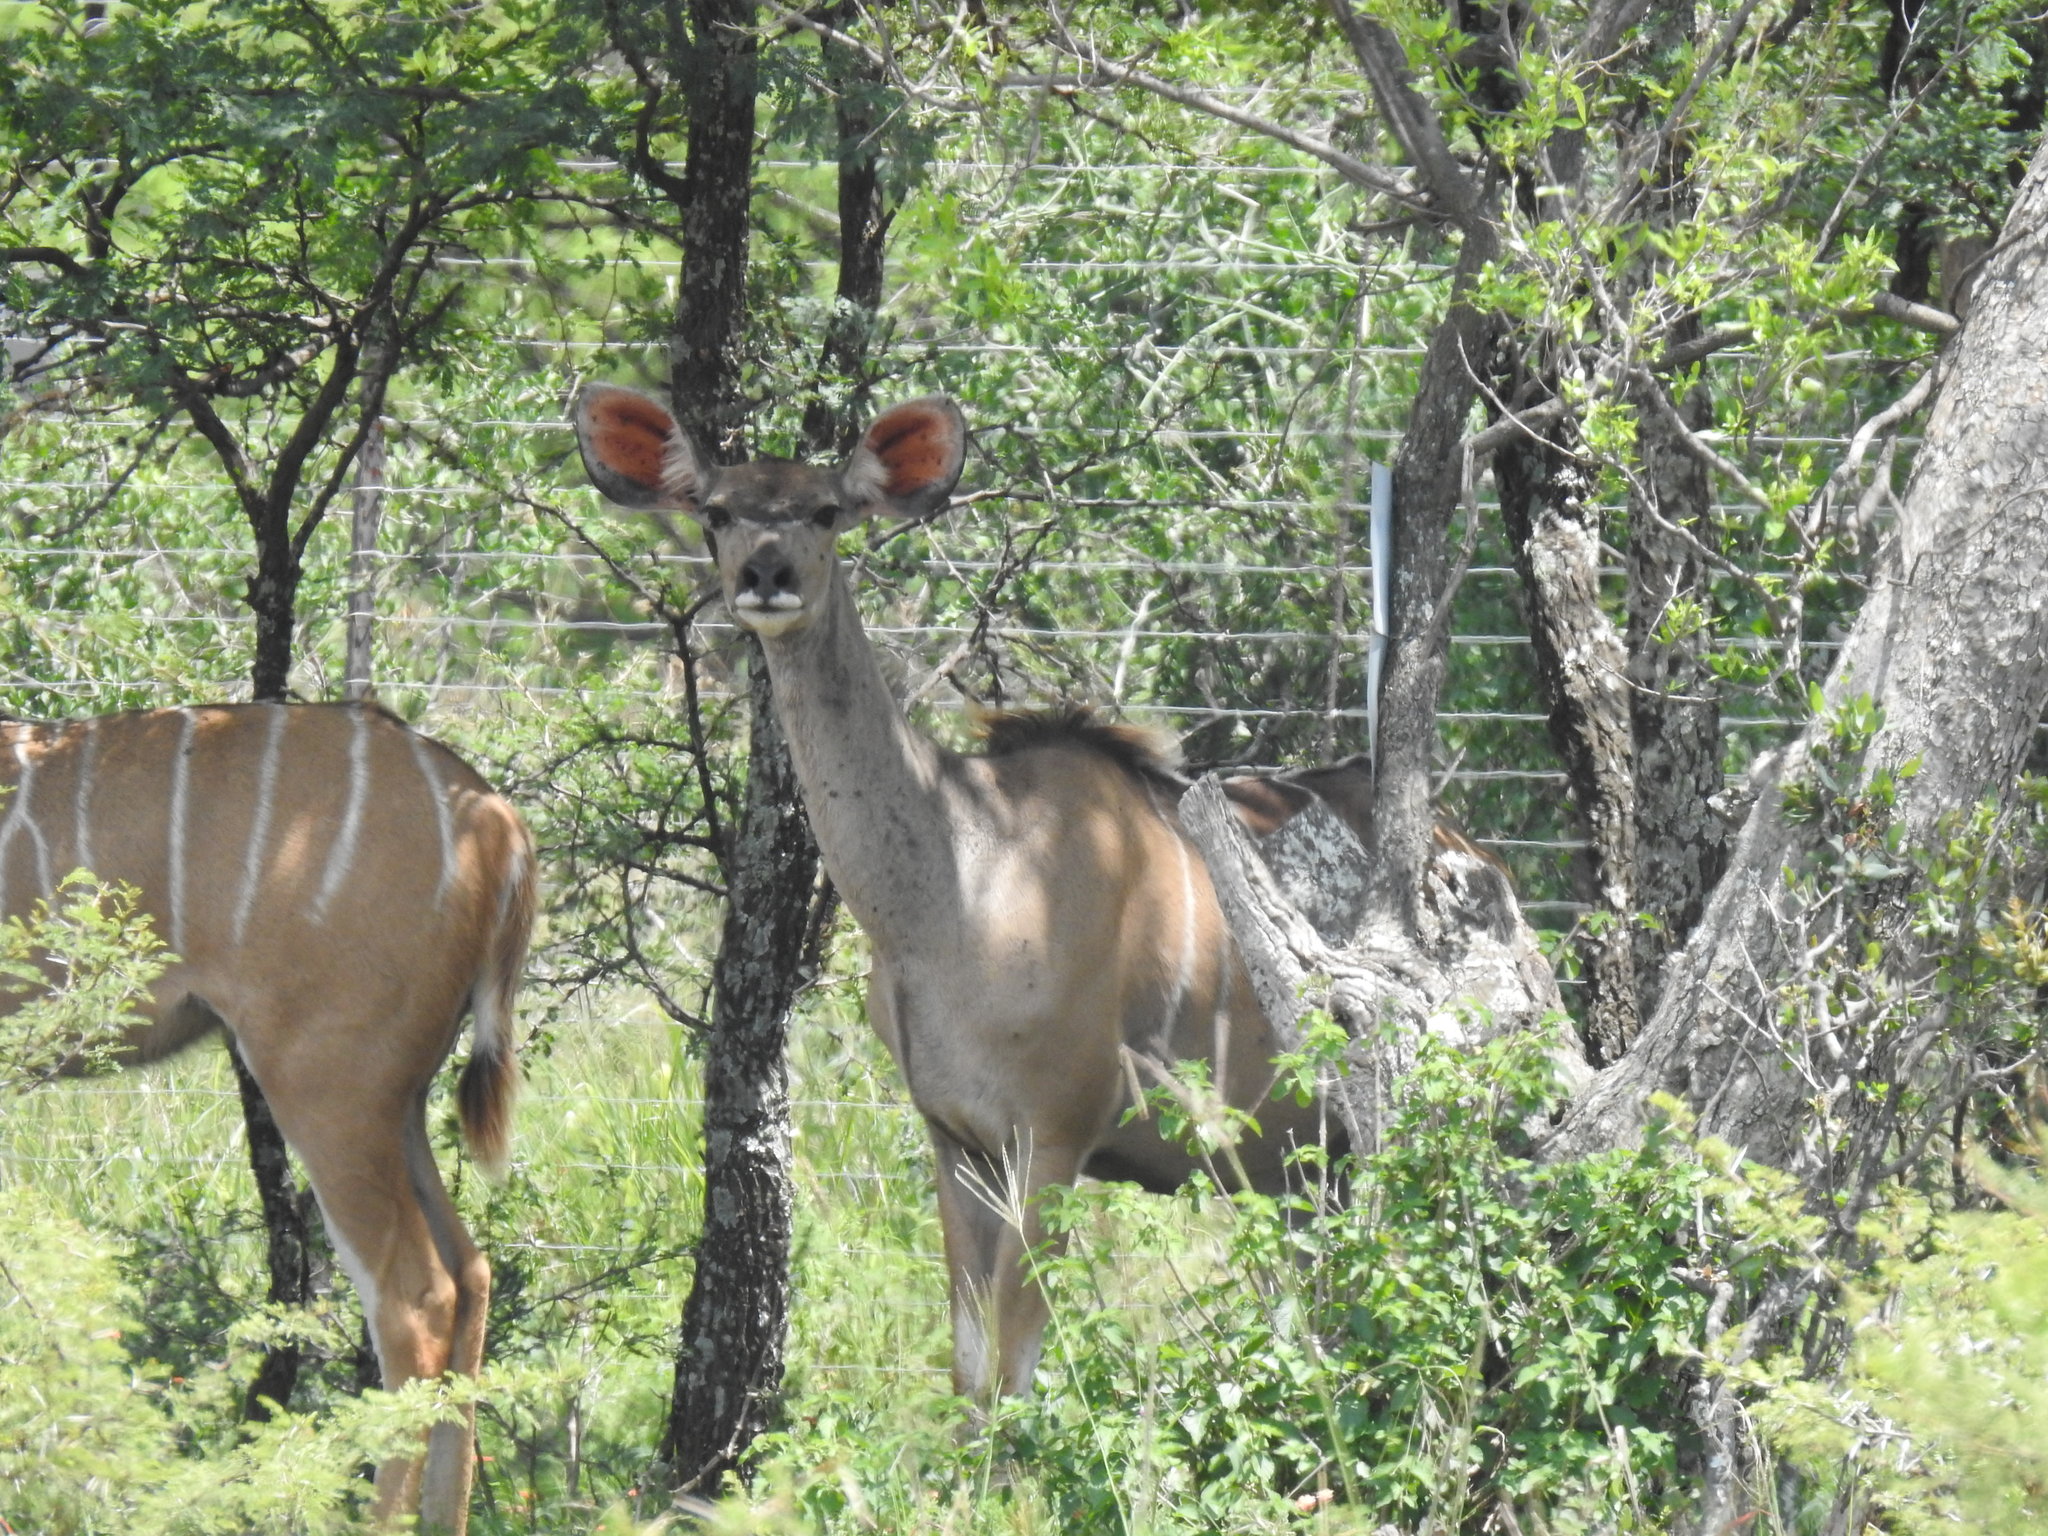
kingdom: Animalia
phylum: Chordata
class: Mammalia
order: Artiodactyla
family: Bovidae
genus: Tragelaphus
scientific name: Tragelaphus strepsiceros
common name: Greater kudu
